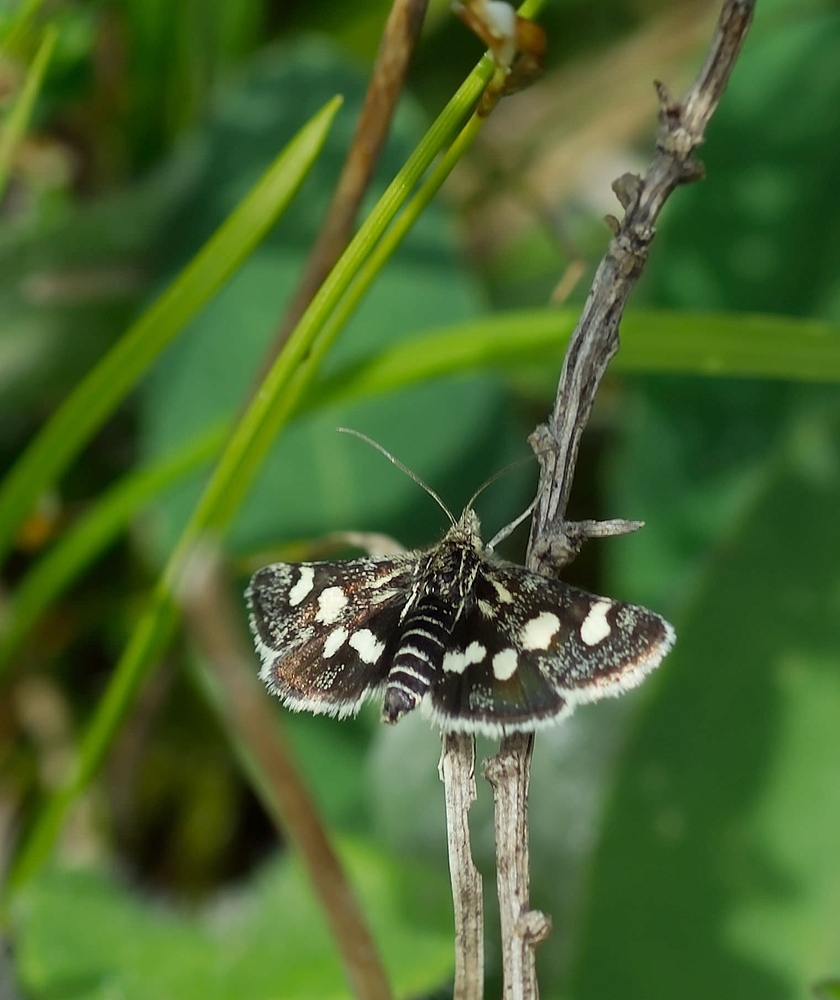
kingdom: Animalia
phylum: Arthropoda
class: Insecta
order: Lepidoptera
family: Crambidae
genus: Eurrhypis
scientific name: Eurrhypis pollinalis
